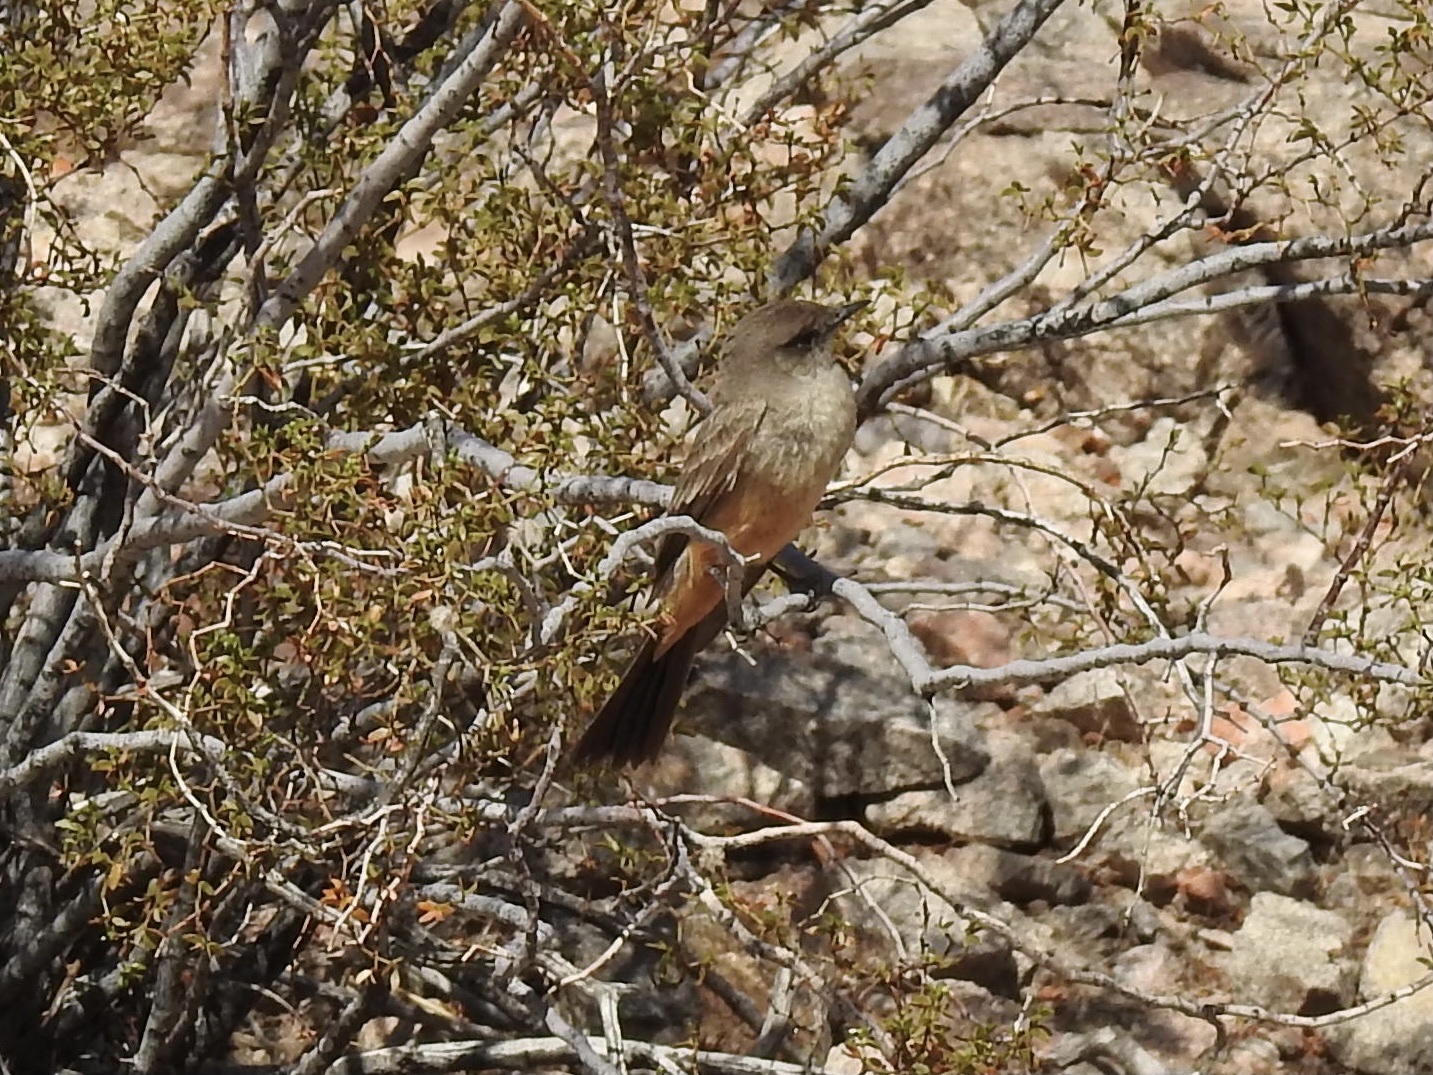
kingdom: Animalia
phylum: Chordata
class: Aves
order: Passeriformes
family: Tyrannidae
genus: Sayornis
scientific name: Sayornis saya
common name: Say's phoebe
